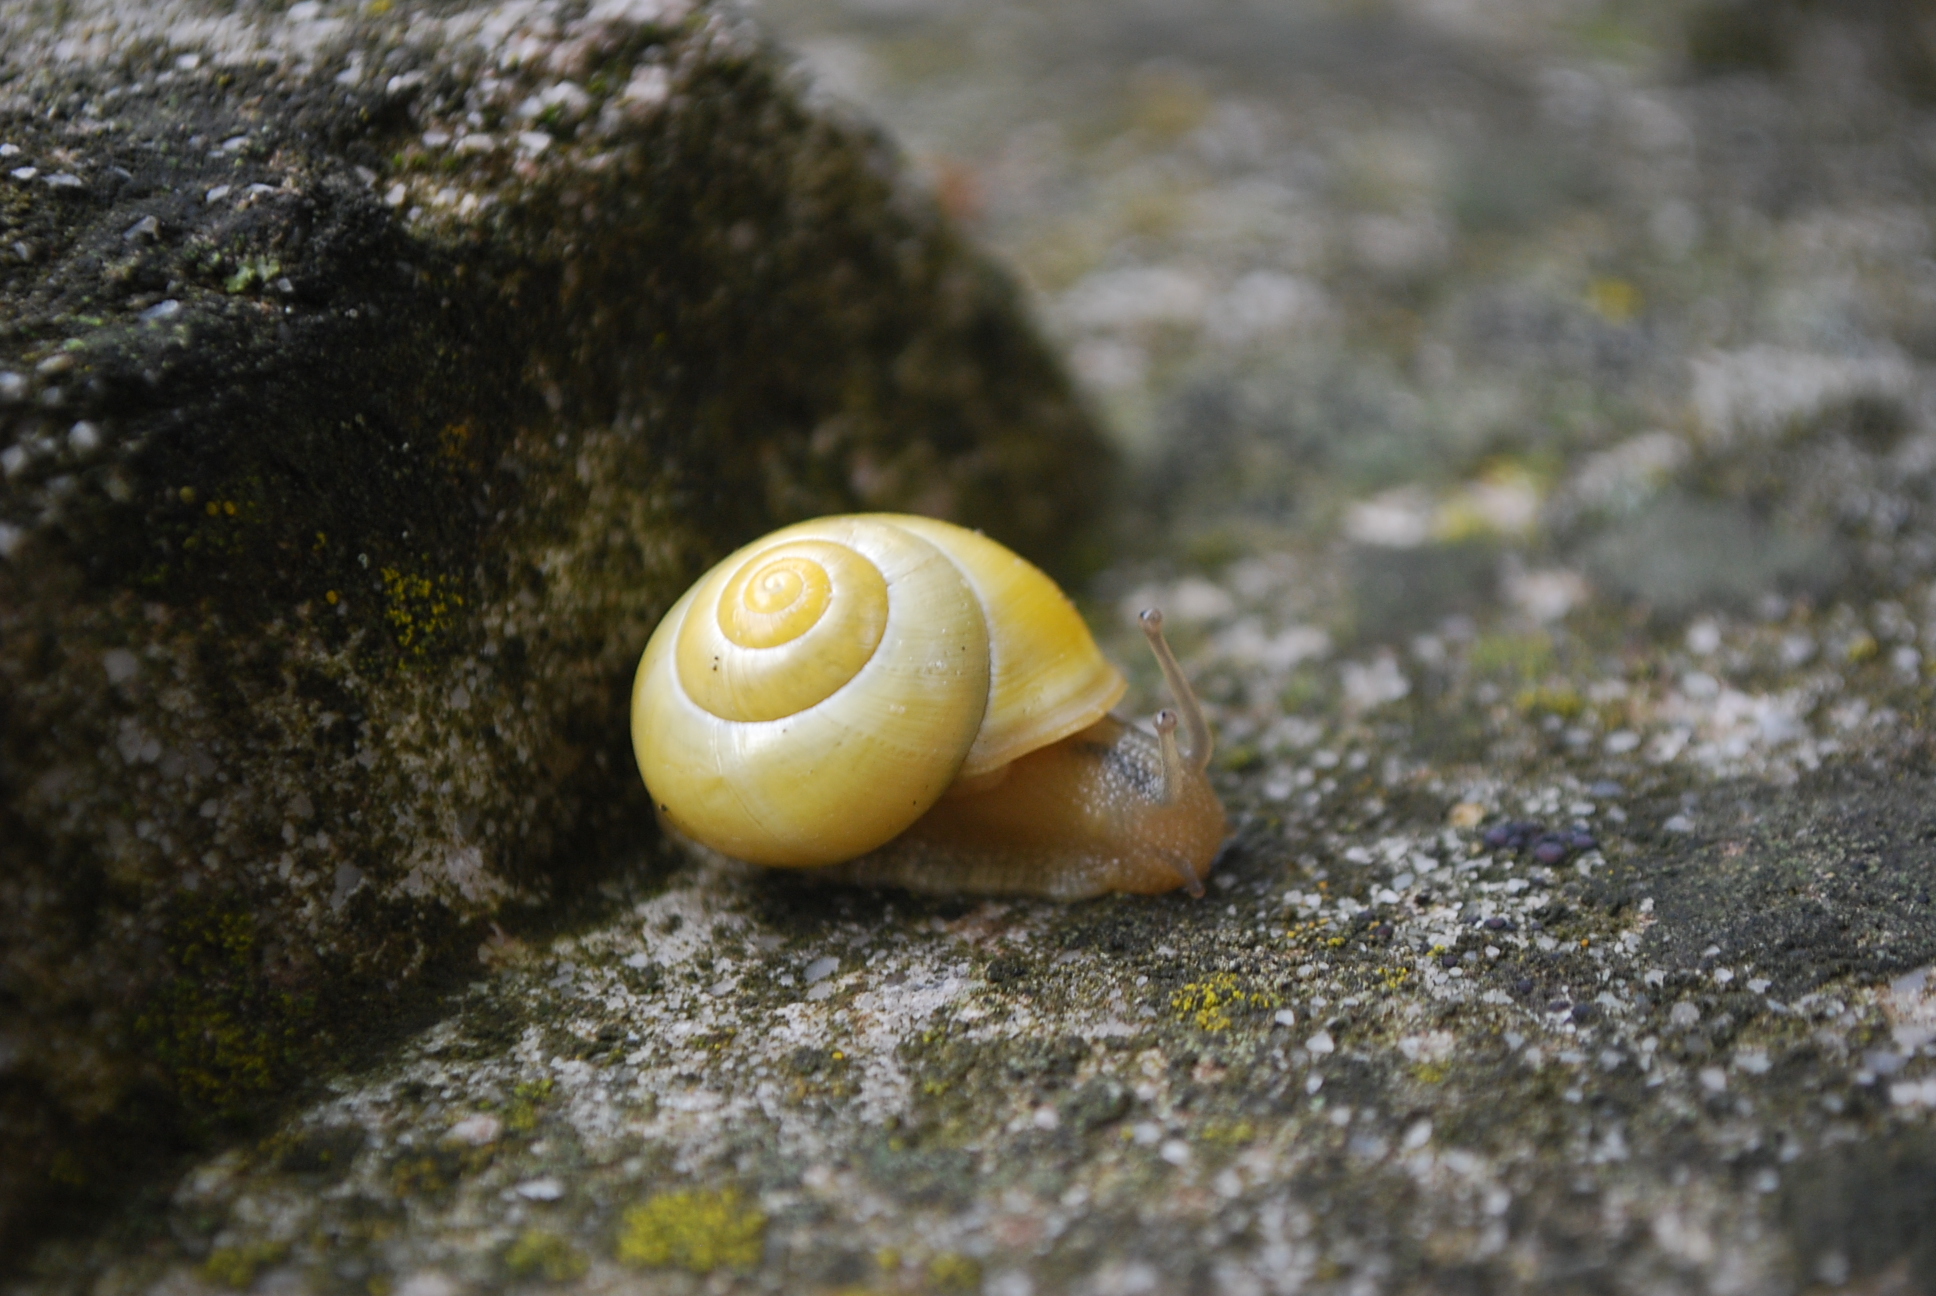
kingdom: Animalia
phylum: Mollusca
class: Gastropoda
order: Stylommatophora
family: Helicidae
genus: Cepaea
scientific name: Cepaea hortensis
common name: White-lip gardensnail
